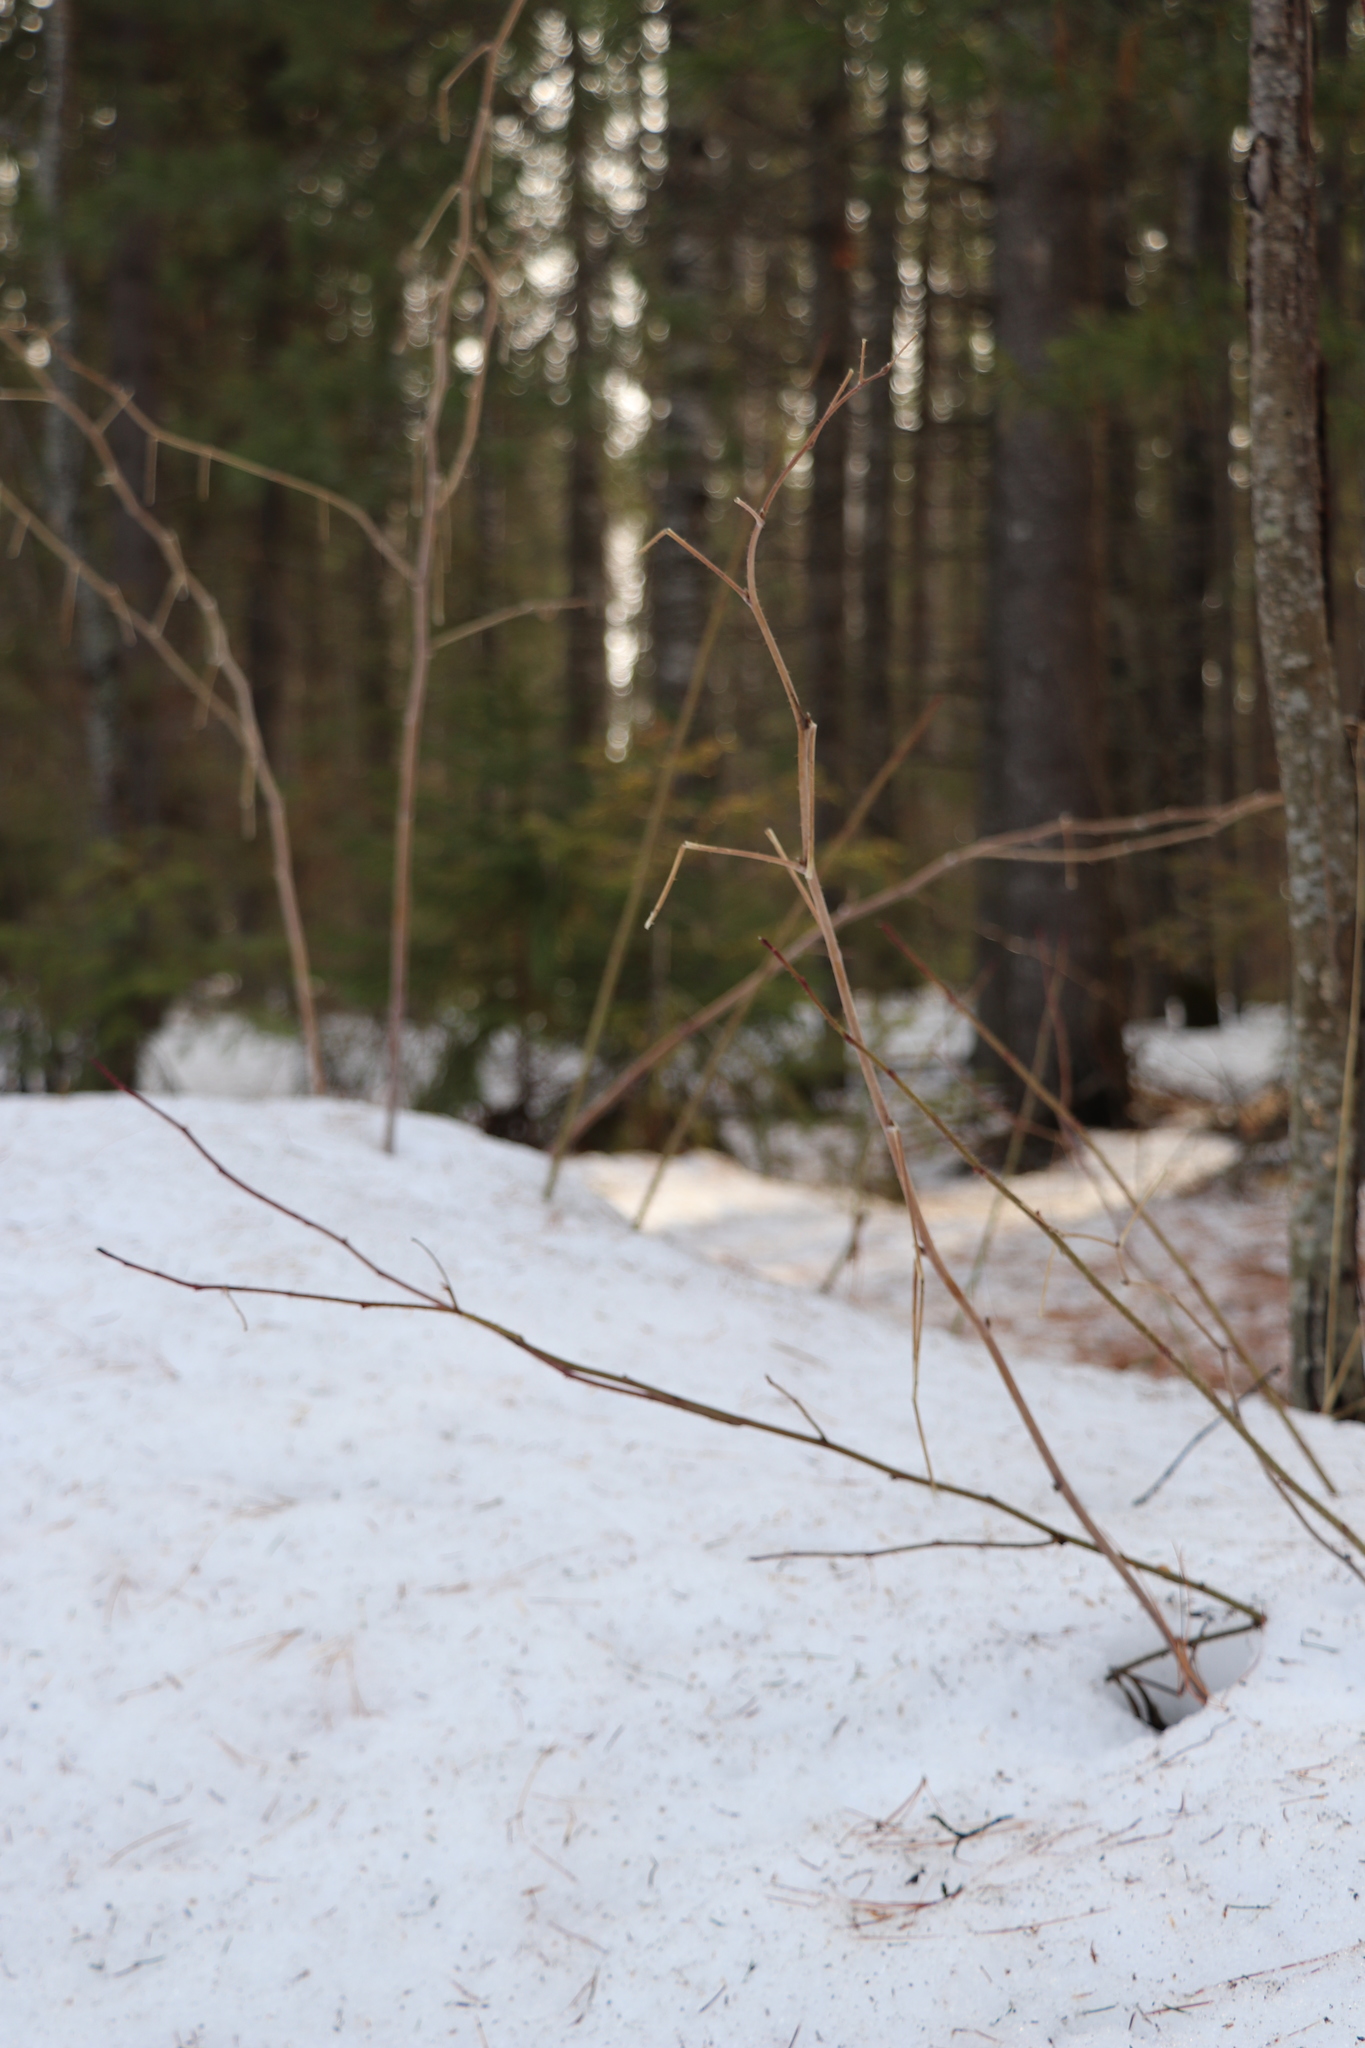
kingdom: Plantae
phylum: Tracheophyta
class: Magnoliopsida
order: Rosales
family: Rosaceae
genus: Rubus
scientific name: Rubus idaeus
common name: Raspberry
